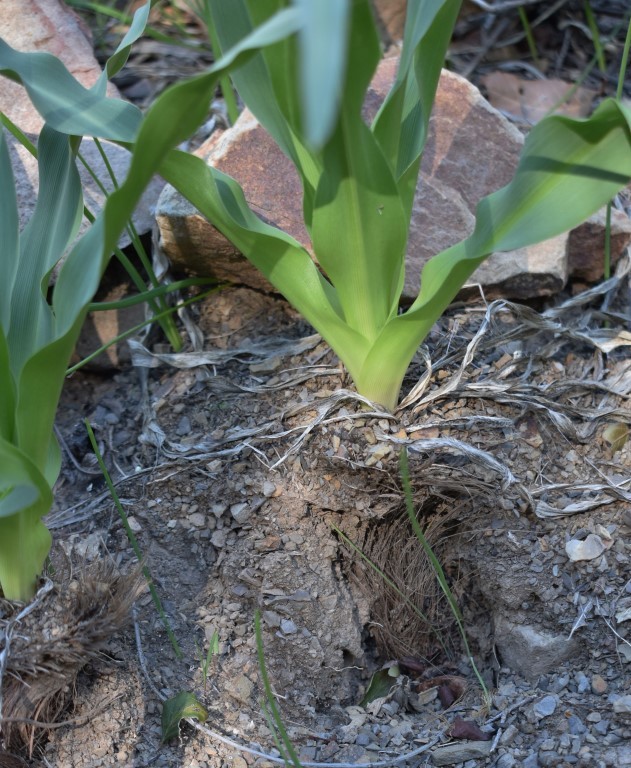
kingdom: Plantae
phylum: Tracheophyta
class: Liliopsida
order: Asparagales
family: Asparagaceae
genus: Chlorogalum
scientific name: Chlorogalum pomeridianum
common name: Amole
